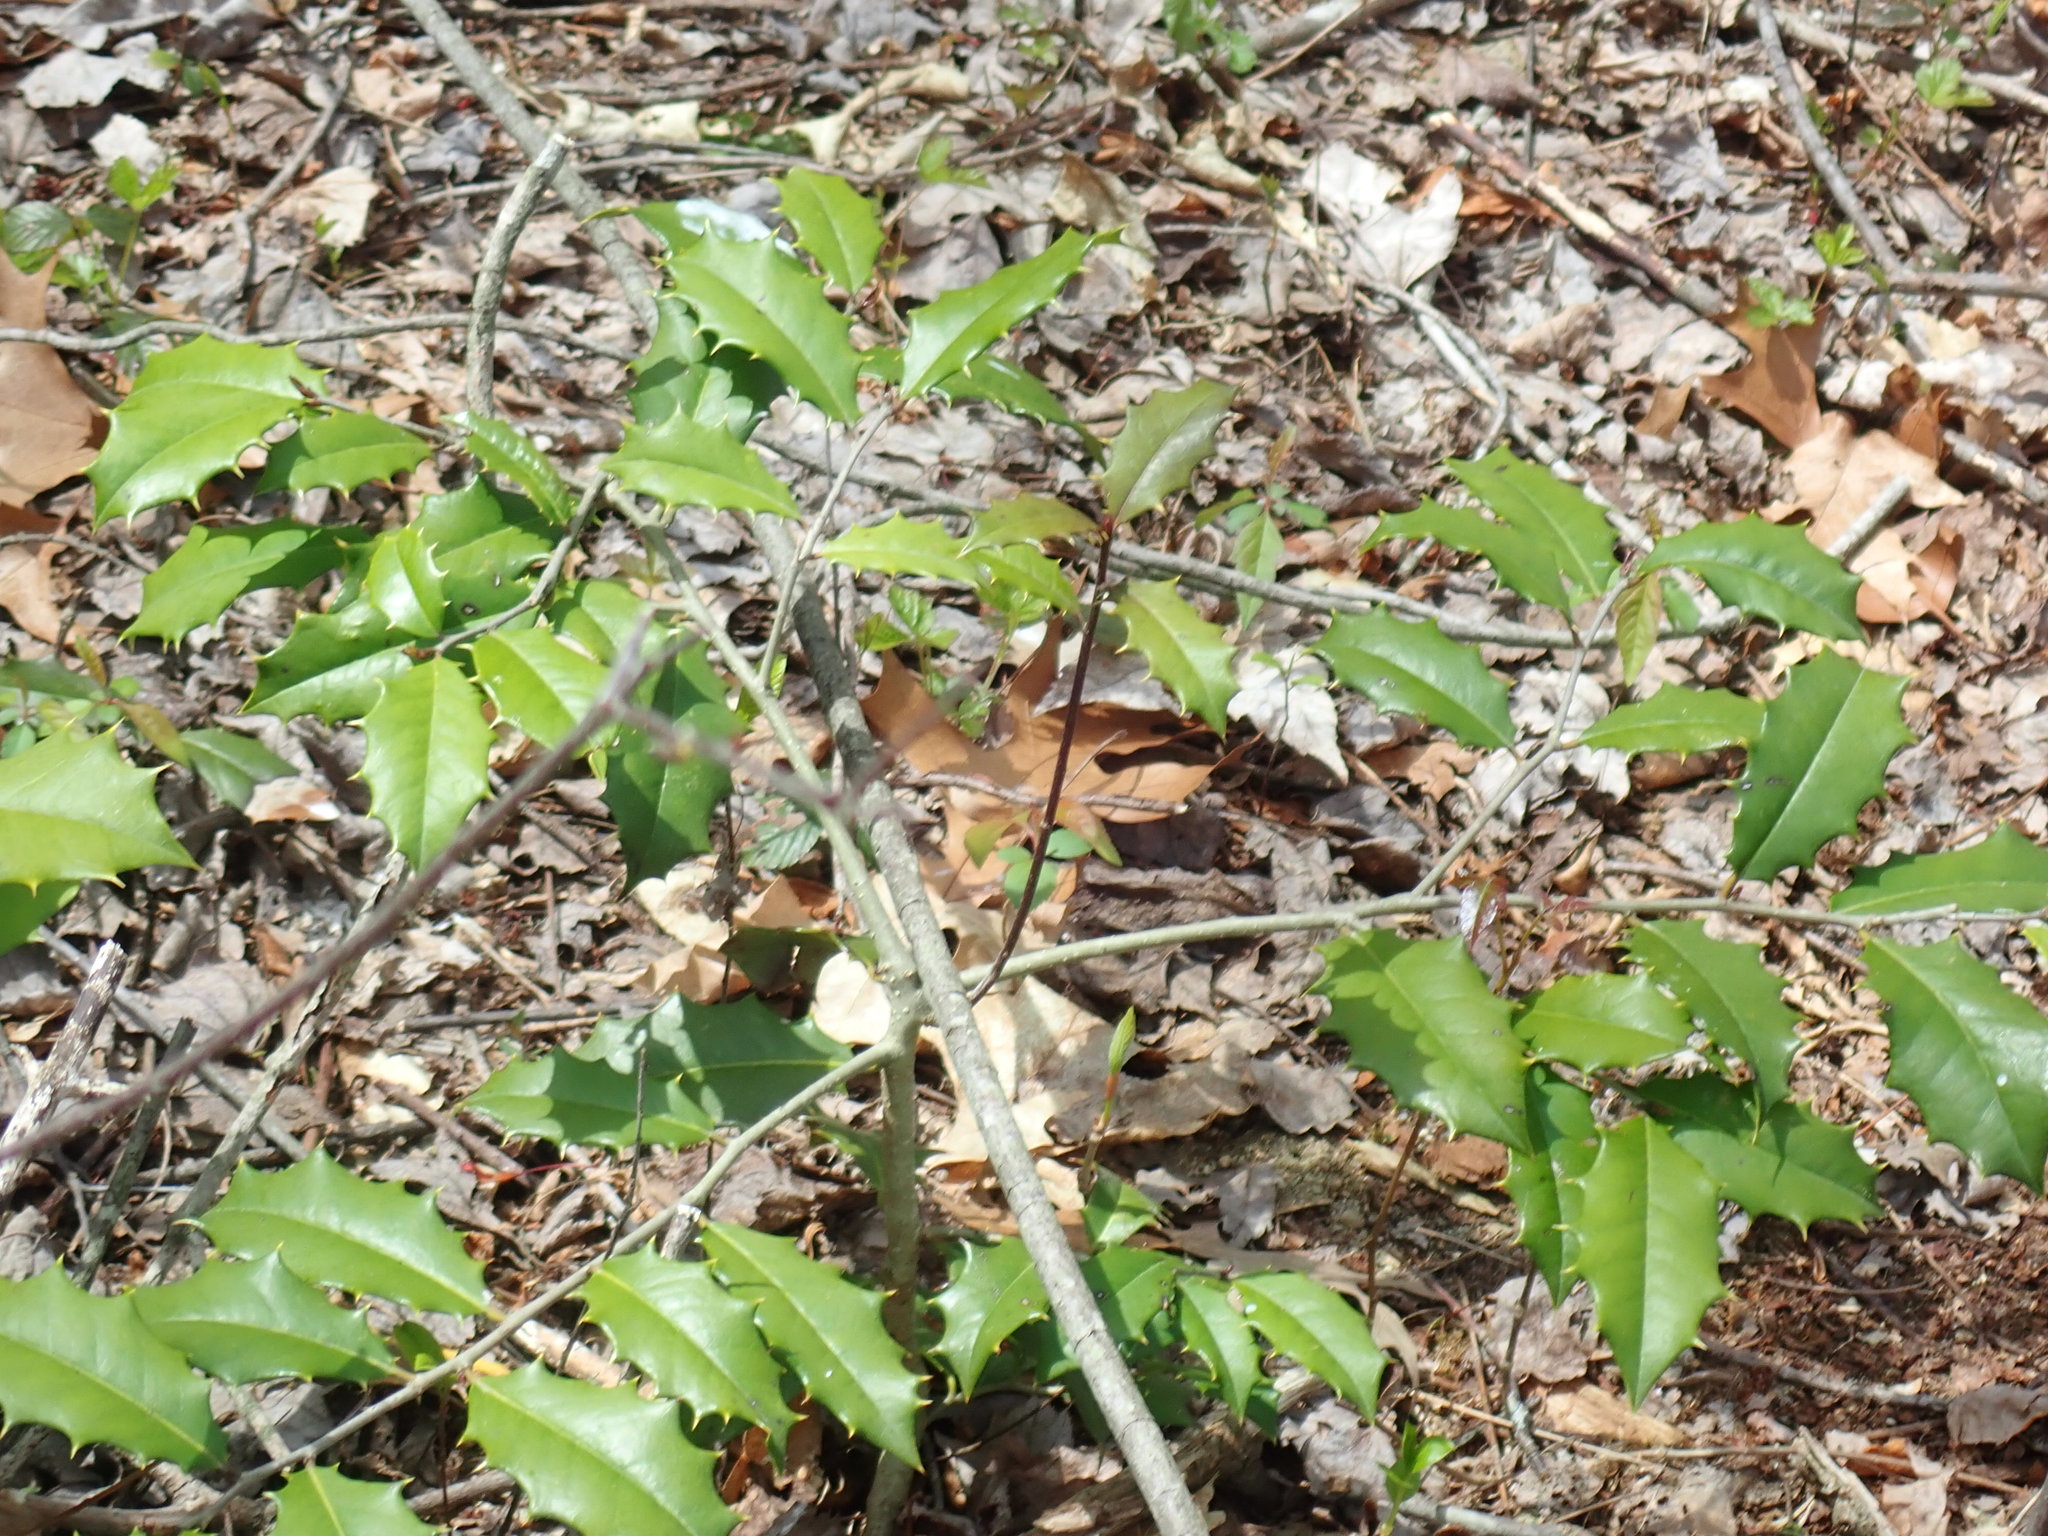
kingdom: Plantae
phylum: Tracheophyta
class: Magnoliopsida
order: Aquifoliales
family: Aquifoliaceae
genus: Ilex
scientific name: Ilex opaca
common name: American holly
